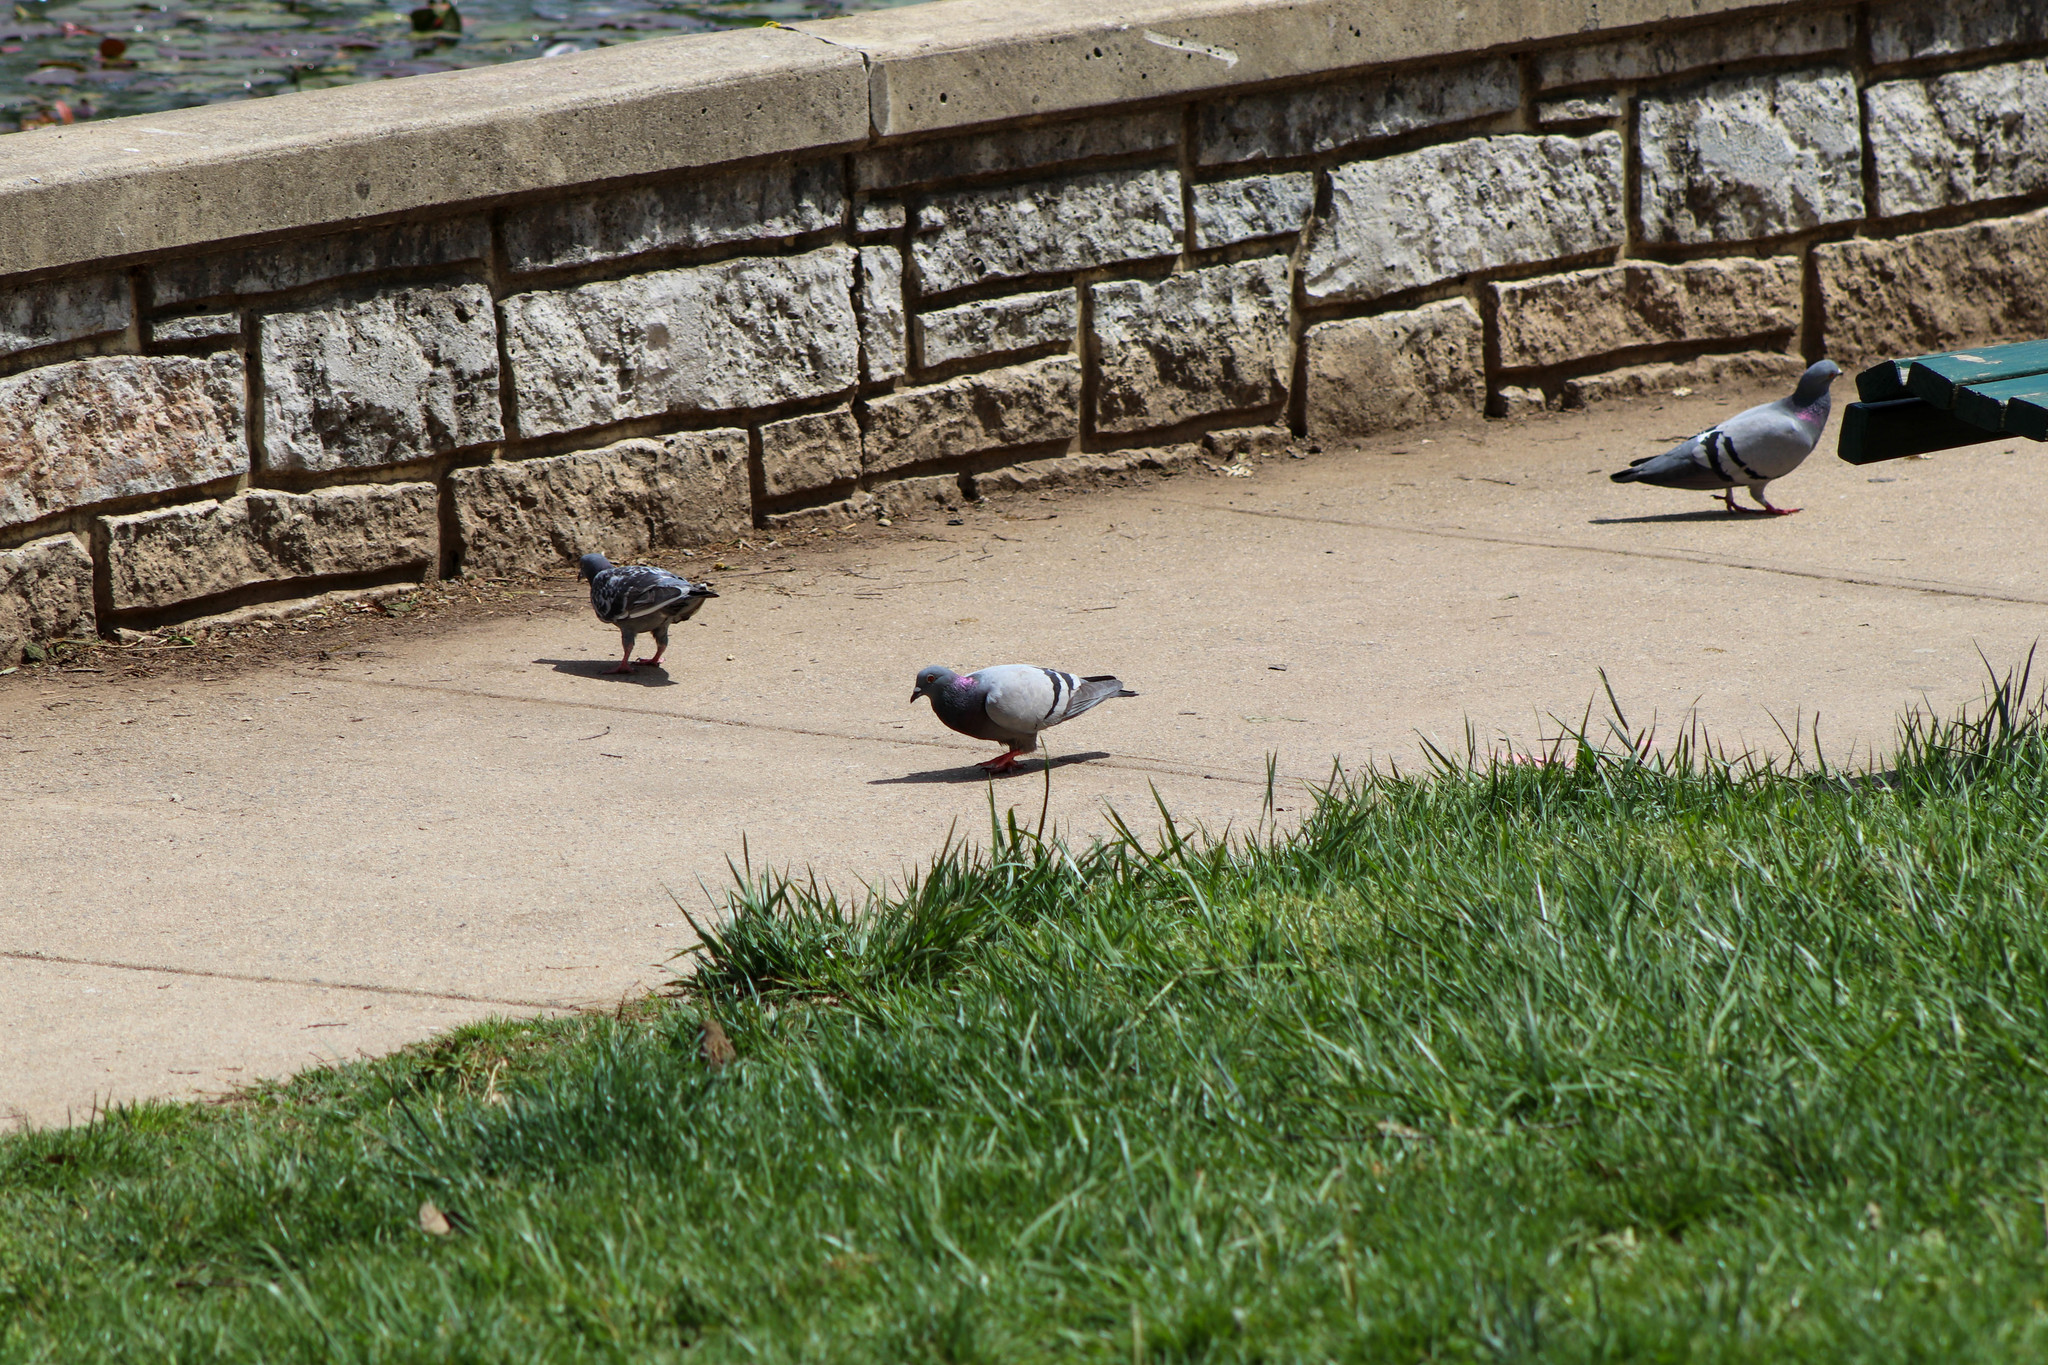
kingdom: Animalia
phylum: Chordata
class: Aves
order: Columbiformes
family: Columbidae
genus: Columba
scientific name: Columba livia
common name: Rock pigeon
